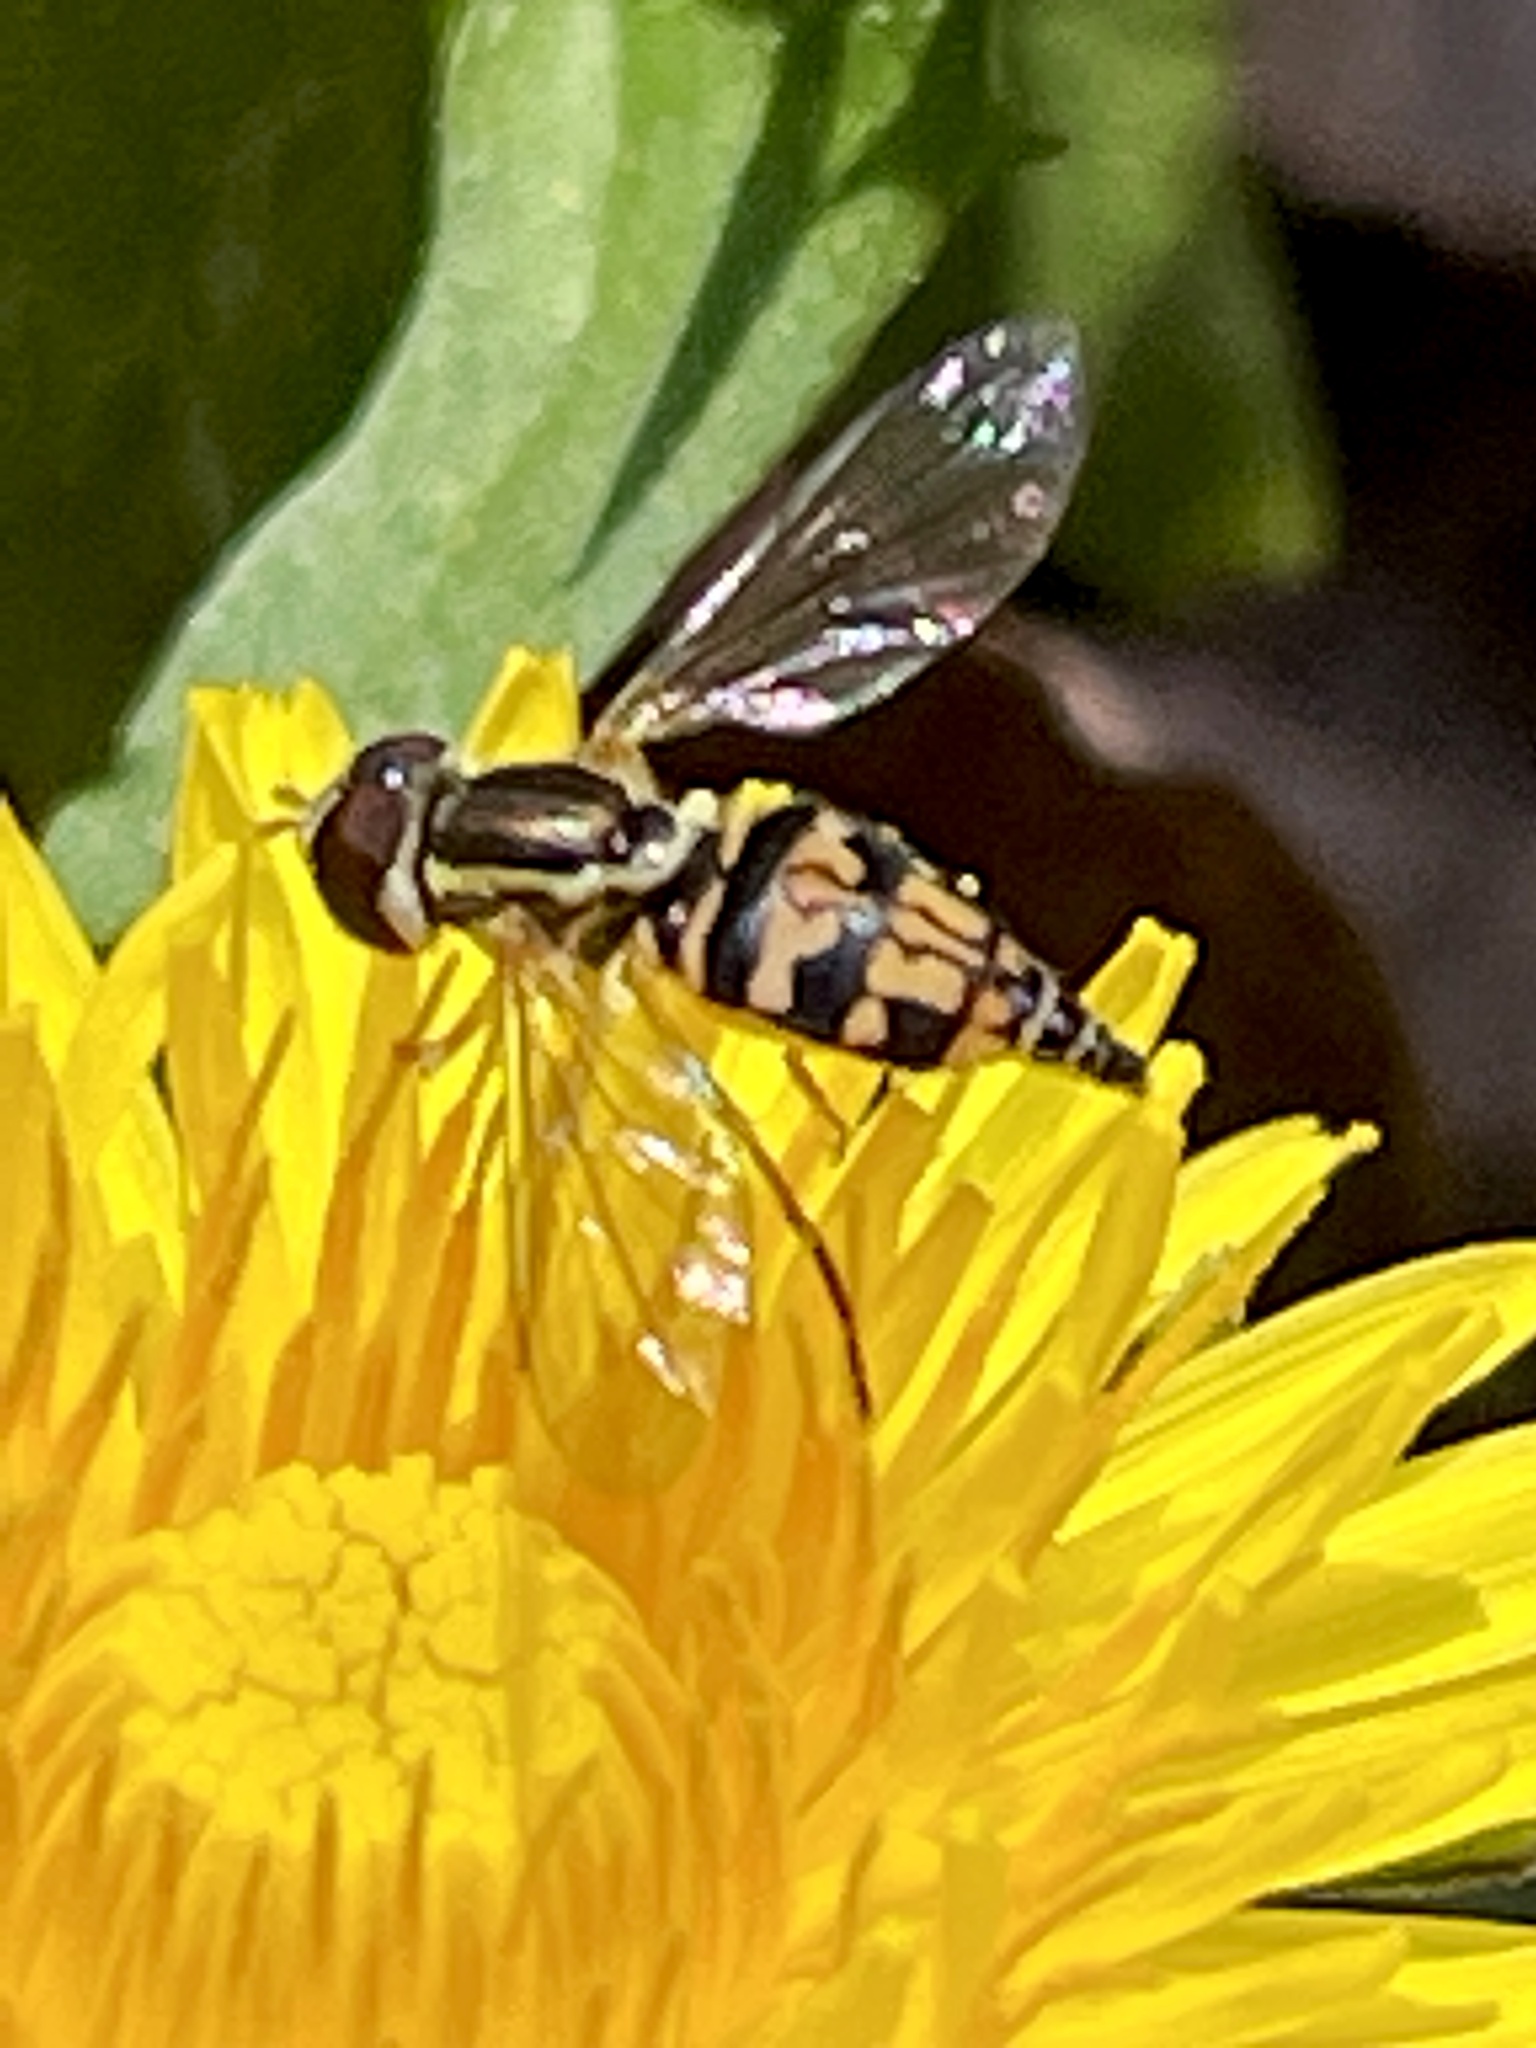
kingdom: Animalia
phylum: Arthropoda
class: Insecta
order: Diptera
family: Syrphidae
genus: Toxomerus
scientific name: Toxomerus geminatus
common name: Eastern calligrapher
